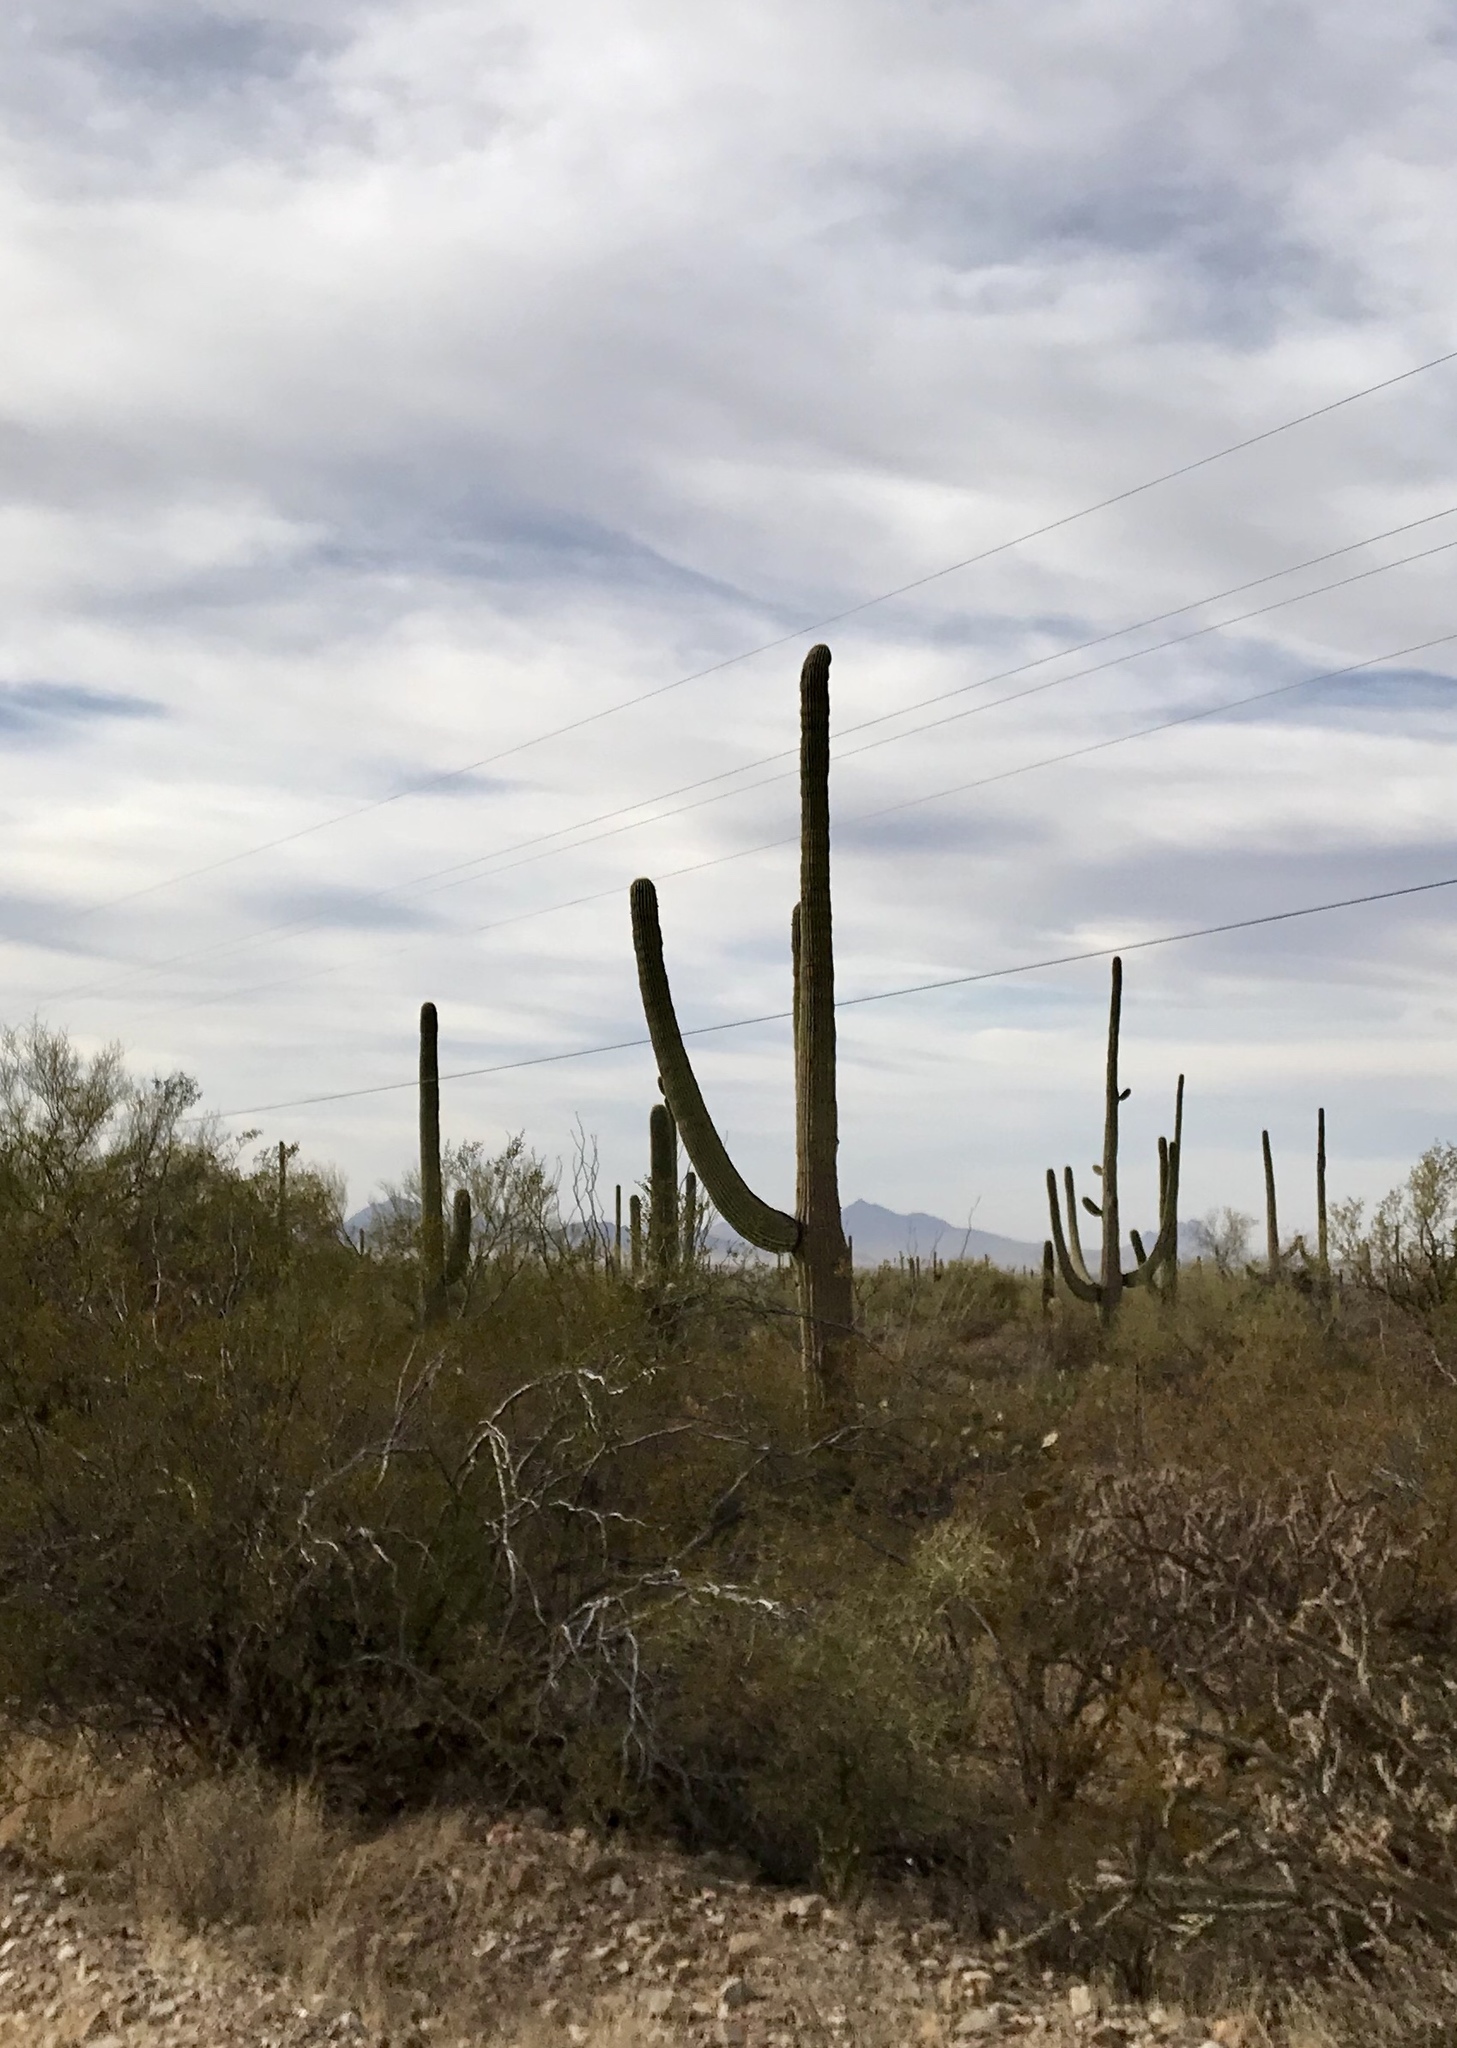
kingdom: Plantae
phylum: Tracheophyta
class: Magnoliopsida
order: Caryophyllales
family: Cactaceae
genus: Carnegiea
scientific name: Carnegiea gigantea
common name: Saguaro
